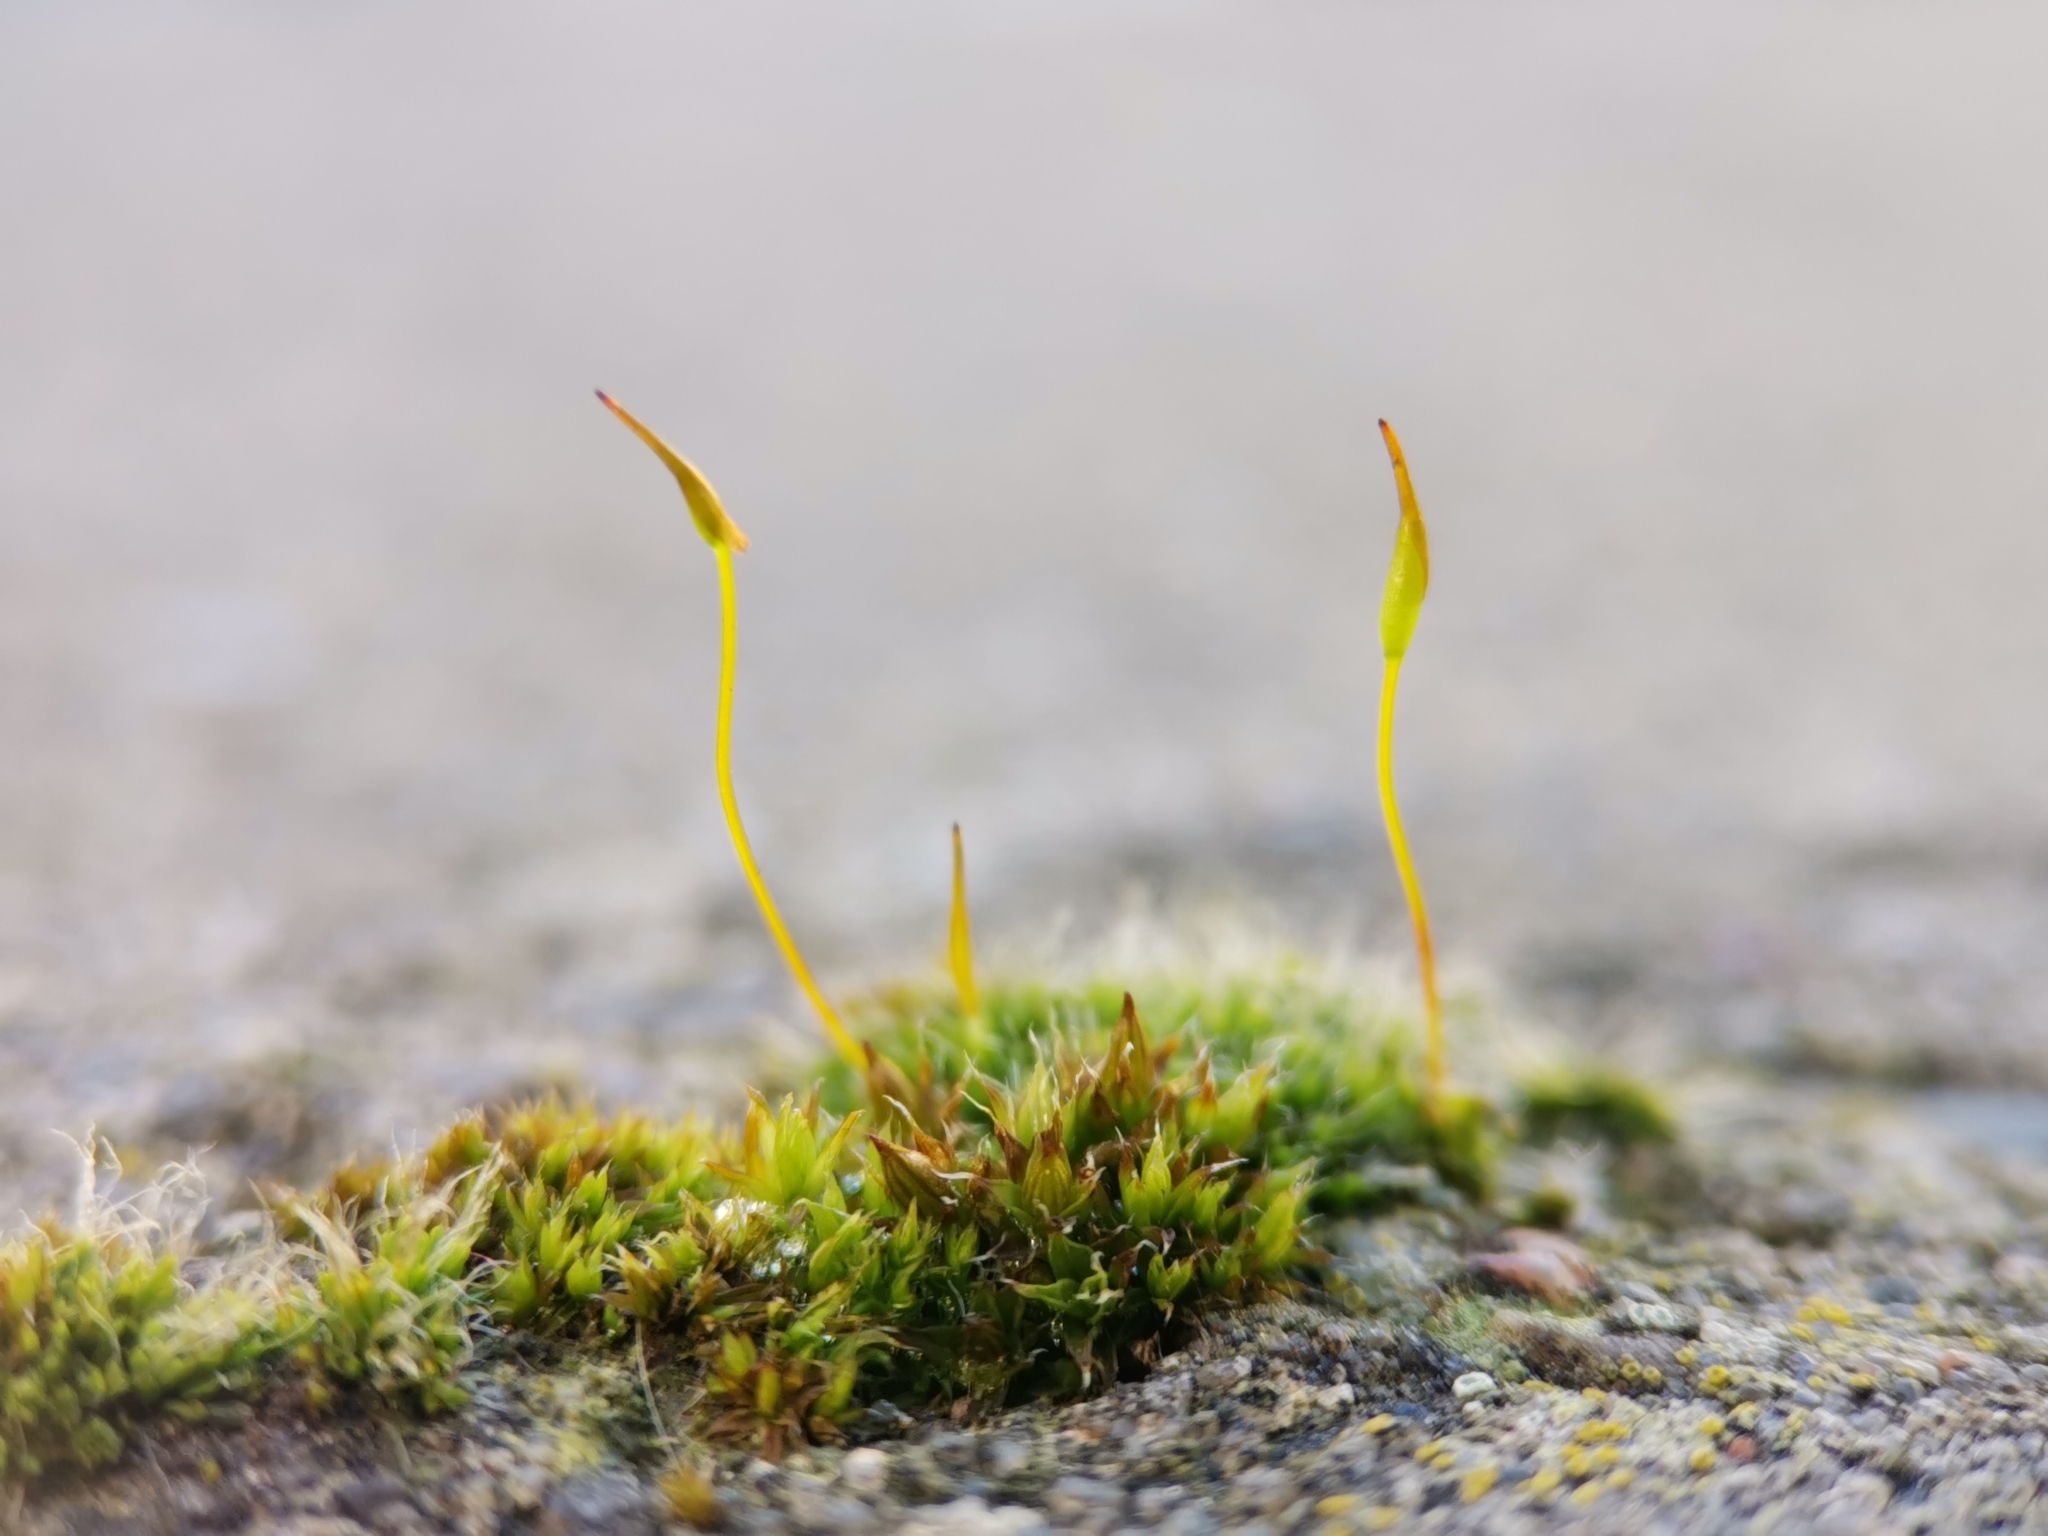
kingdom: Plantae
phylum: Bryophyta
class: Bryopsida
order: Pottiales
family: Pottiaceae
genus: Tortula
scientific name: Tortula muralis
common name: Wall screw-moss
